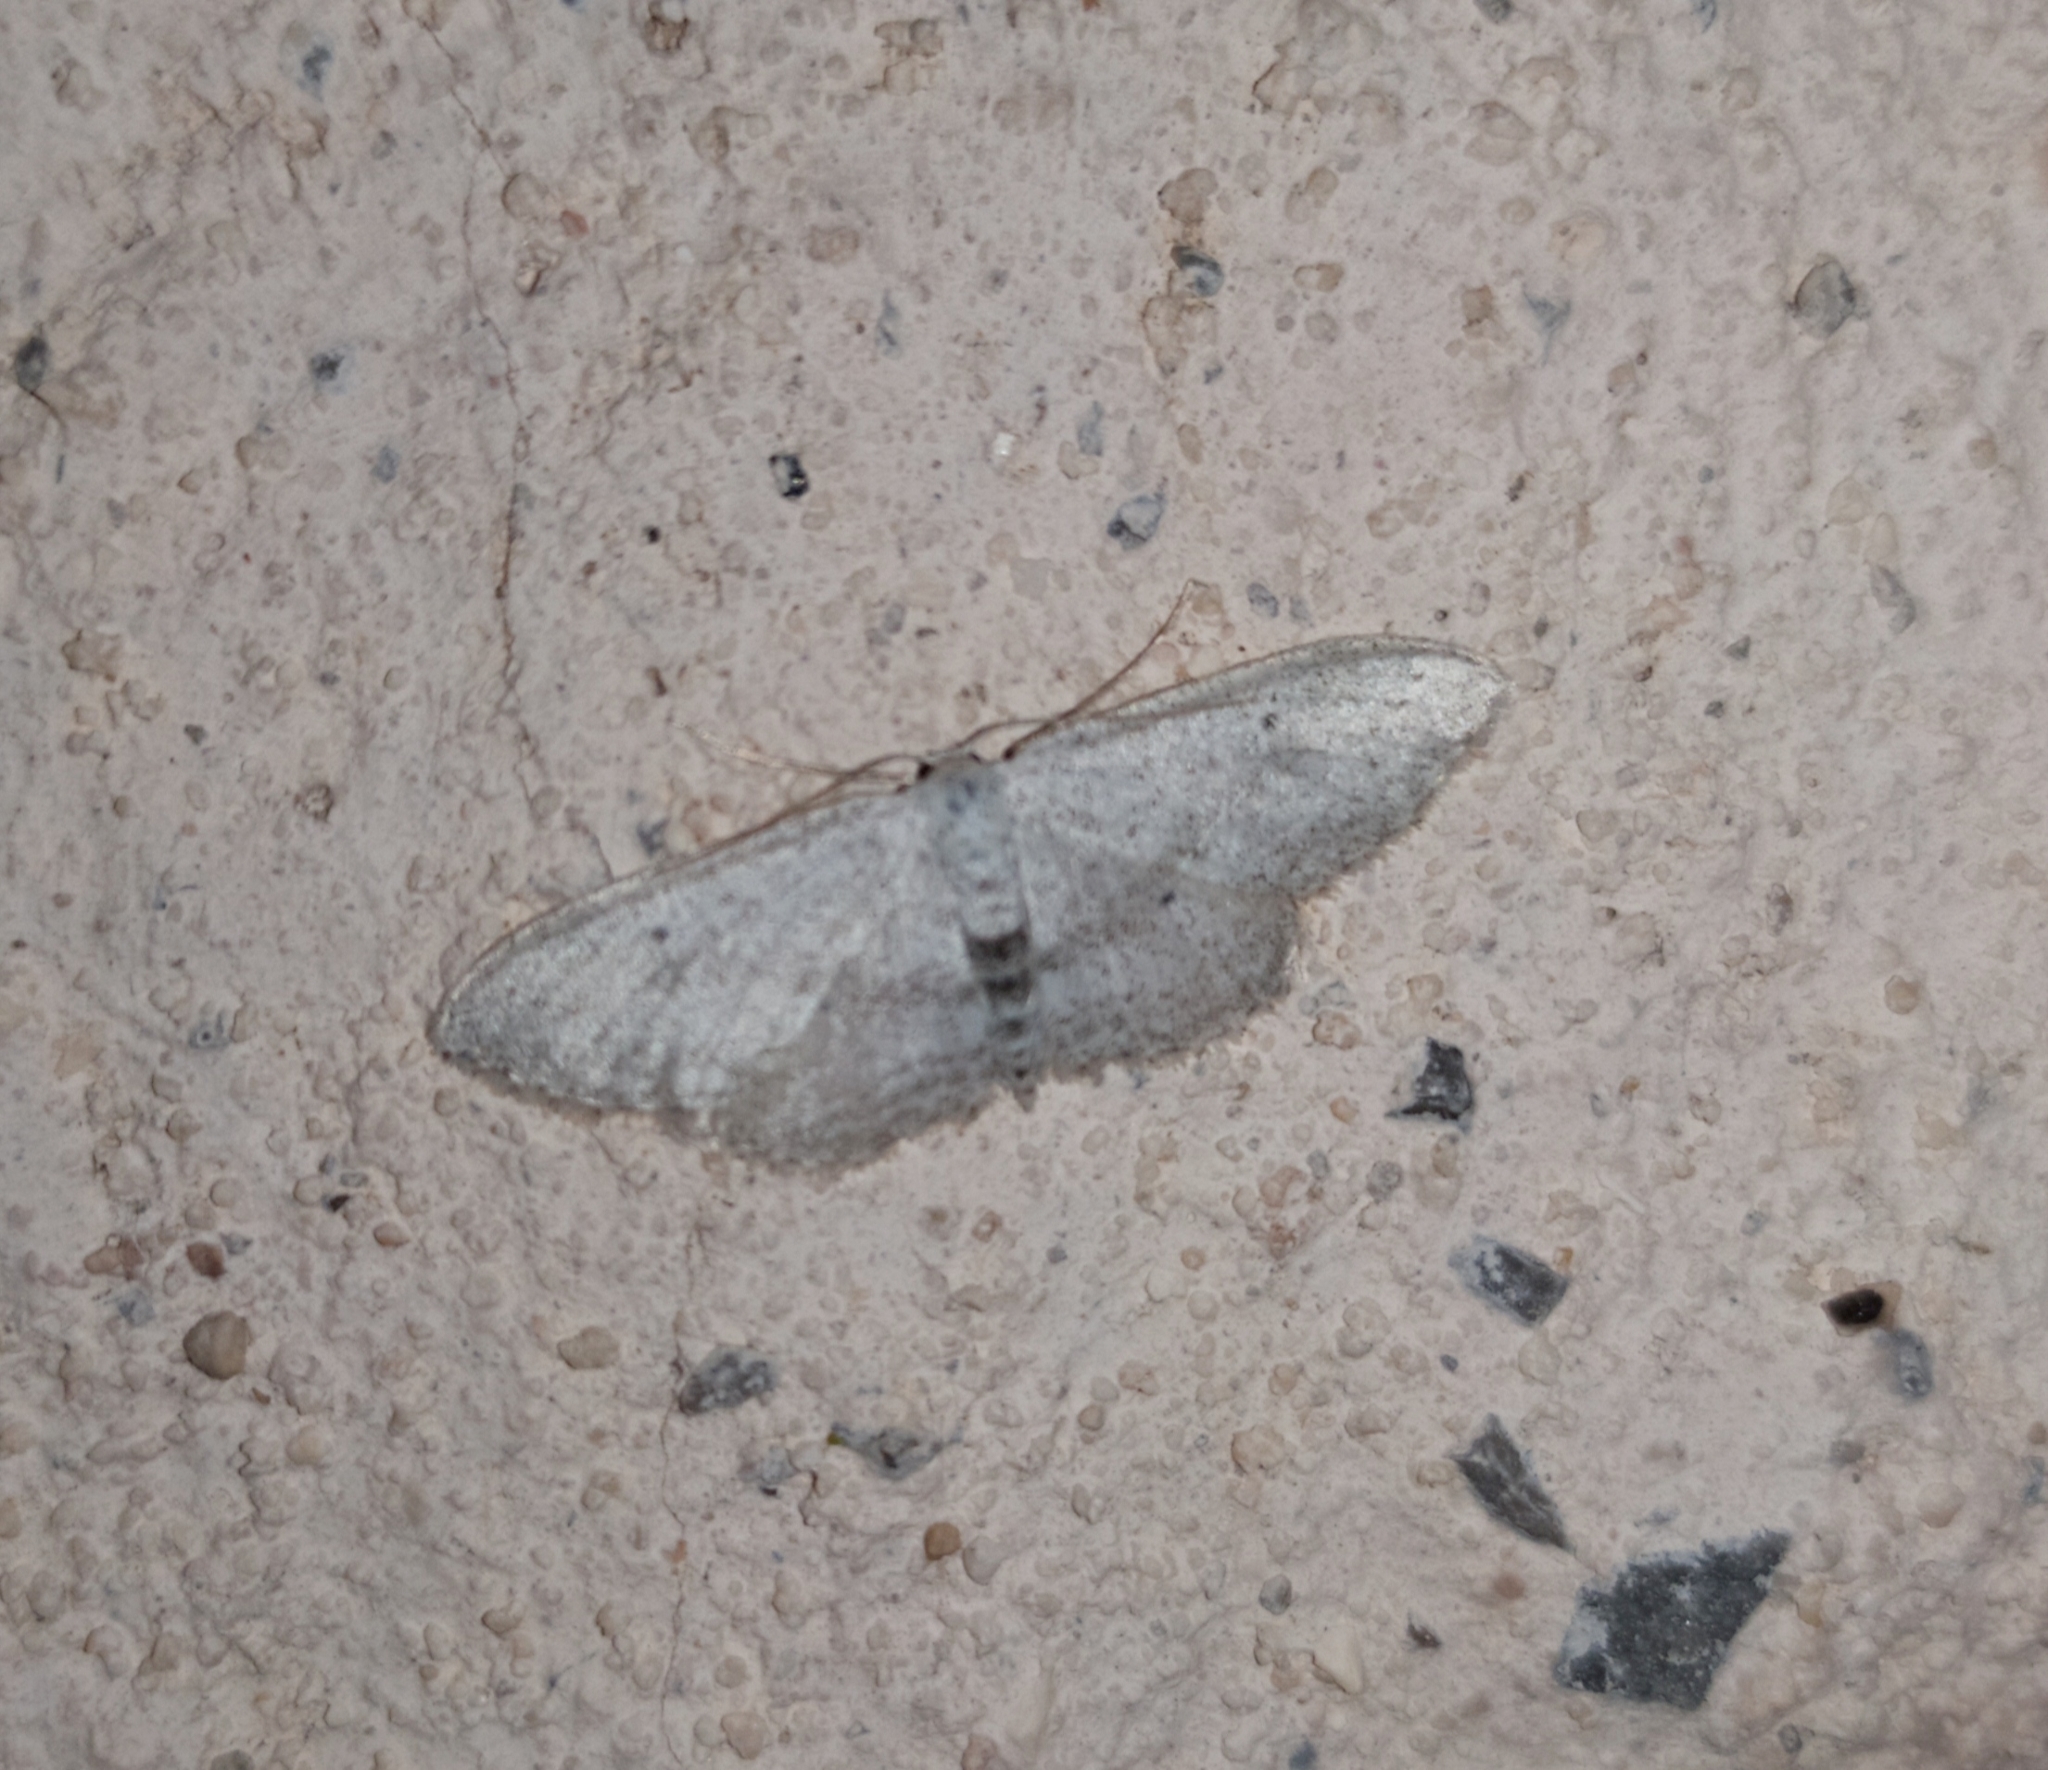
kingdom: Animalia
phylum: Arthropoda
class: Insecta
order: Lepidoptera
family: Geometridae
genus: Idaea
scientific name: Idaea seriata
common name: Small dusty wave
